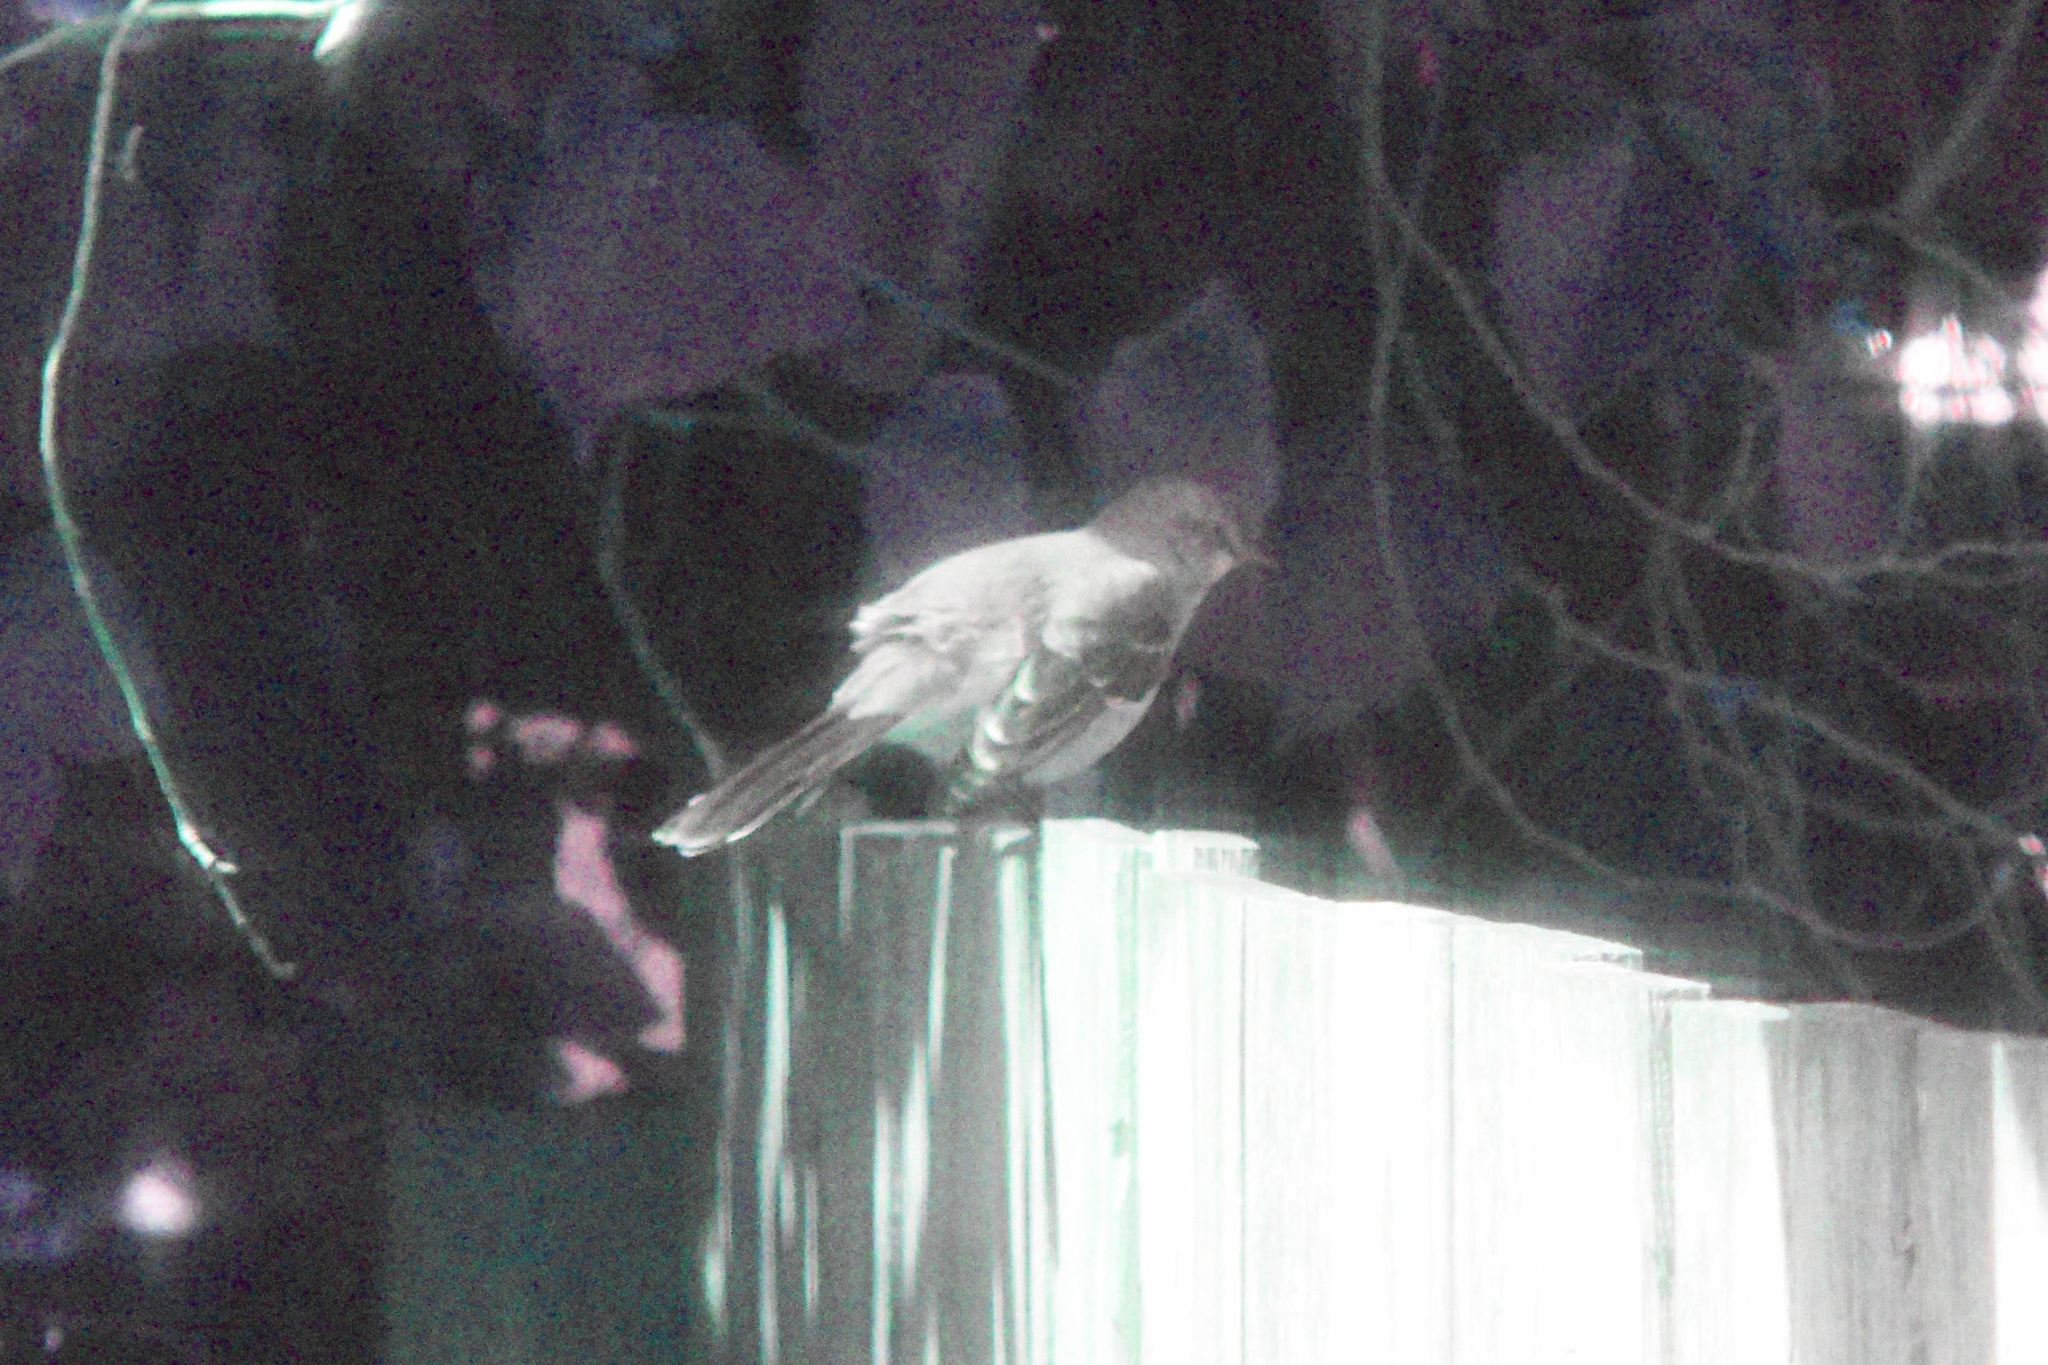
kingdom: Animalia
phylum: Chordata
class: Aves
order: Passeriformes
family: Mimidae
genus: Mimus
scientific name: Mimus polyglottos
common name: Northern mockingbird
